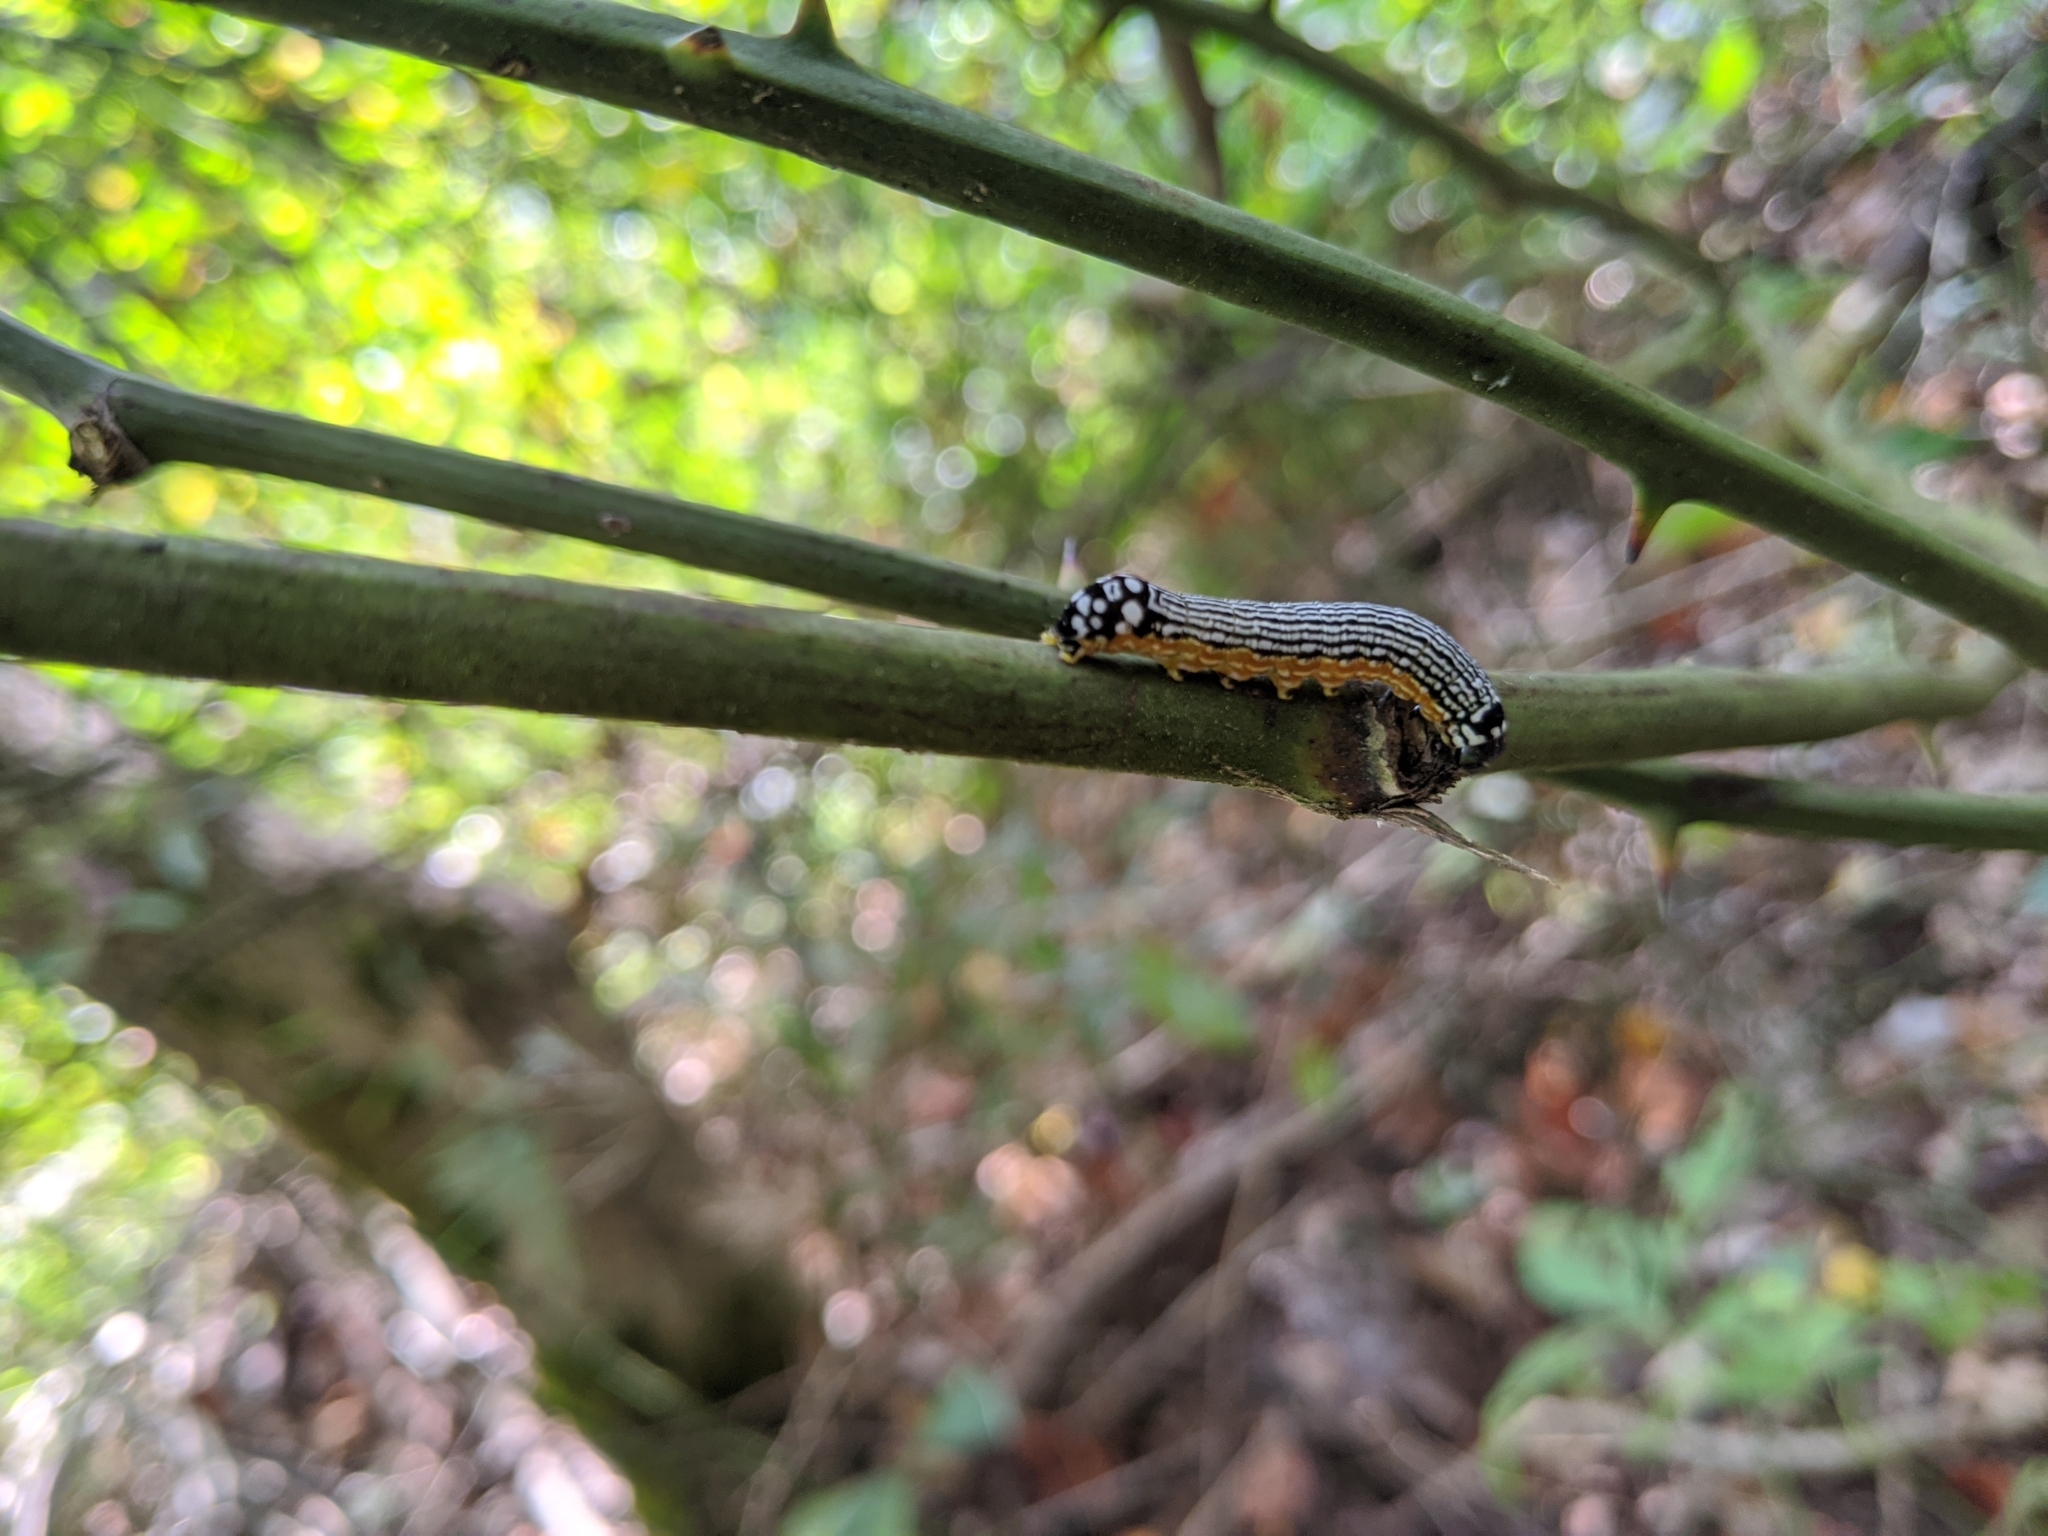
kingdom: Animalia
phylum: Arthropoda
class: Insecta
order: Lepidoptera
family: Noctuidae
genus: Phosphila
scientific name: Phosphila turbulenta
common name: Turbulent phosphila moth
